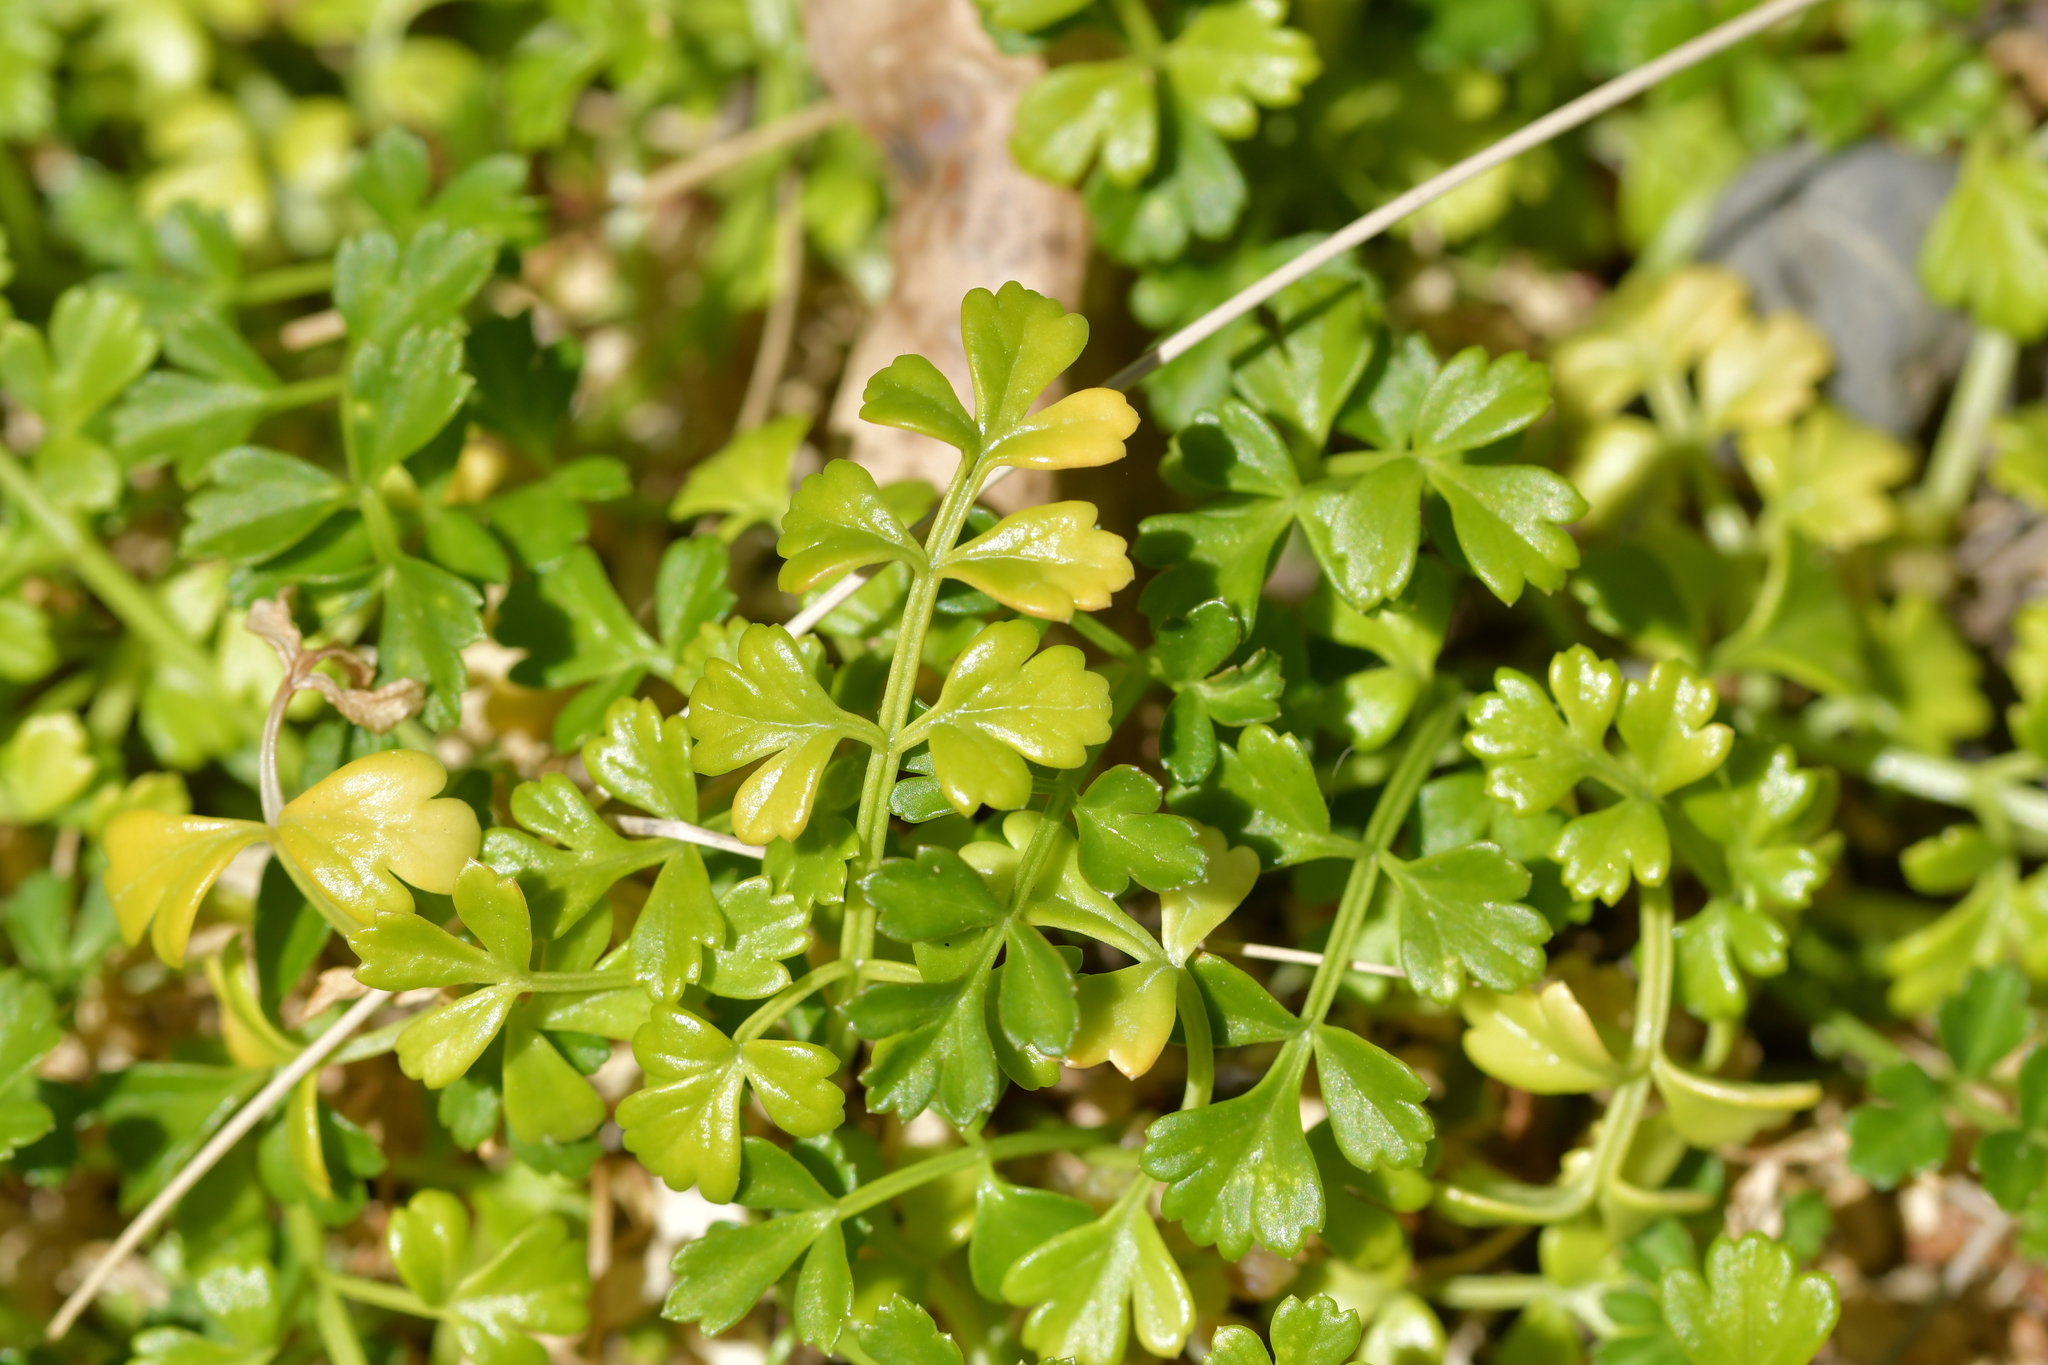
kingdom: Plantae
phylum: Tracheophyta
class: Magnoliopsida
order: Apiales
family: Apiaceae
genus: Apium
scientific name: Apium prostratum
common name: Prostrate marshwort
